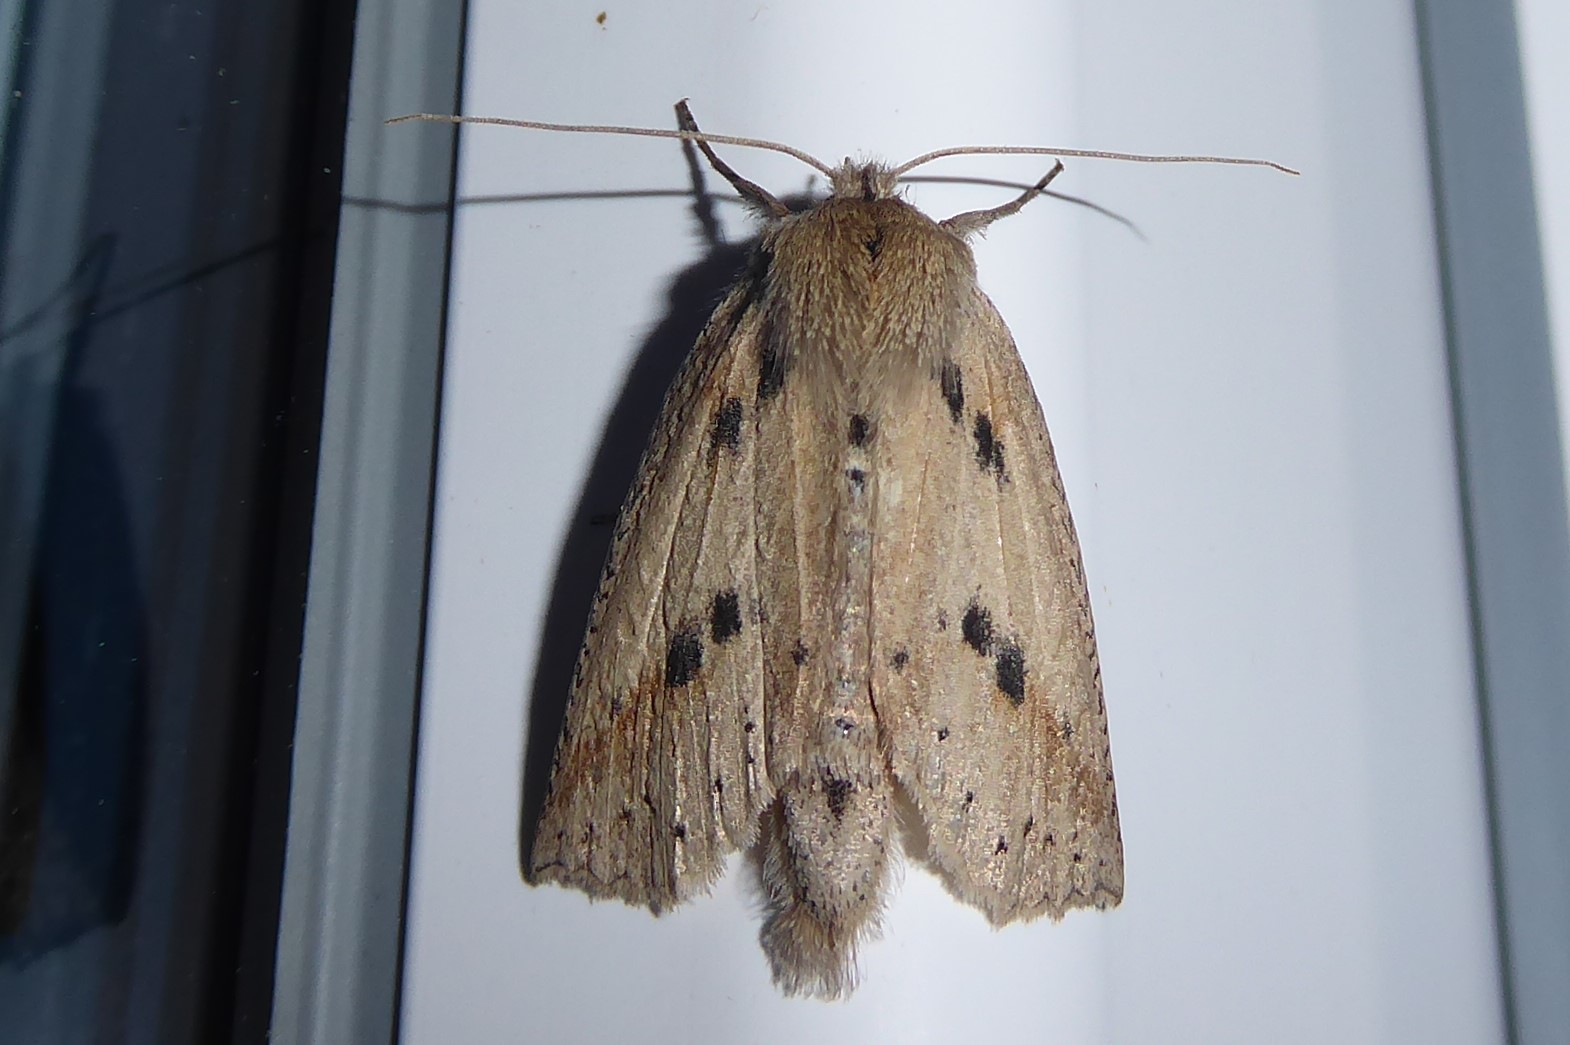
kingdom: Animalia
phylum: Arthropoda
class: Insecta
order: Lepidoptera
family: Geometridae
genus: Declana
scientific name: Declana leptomera
